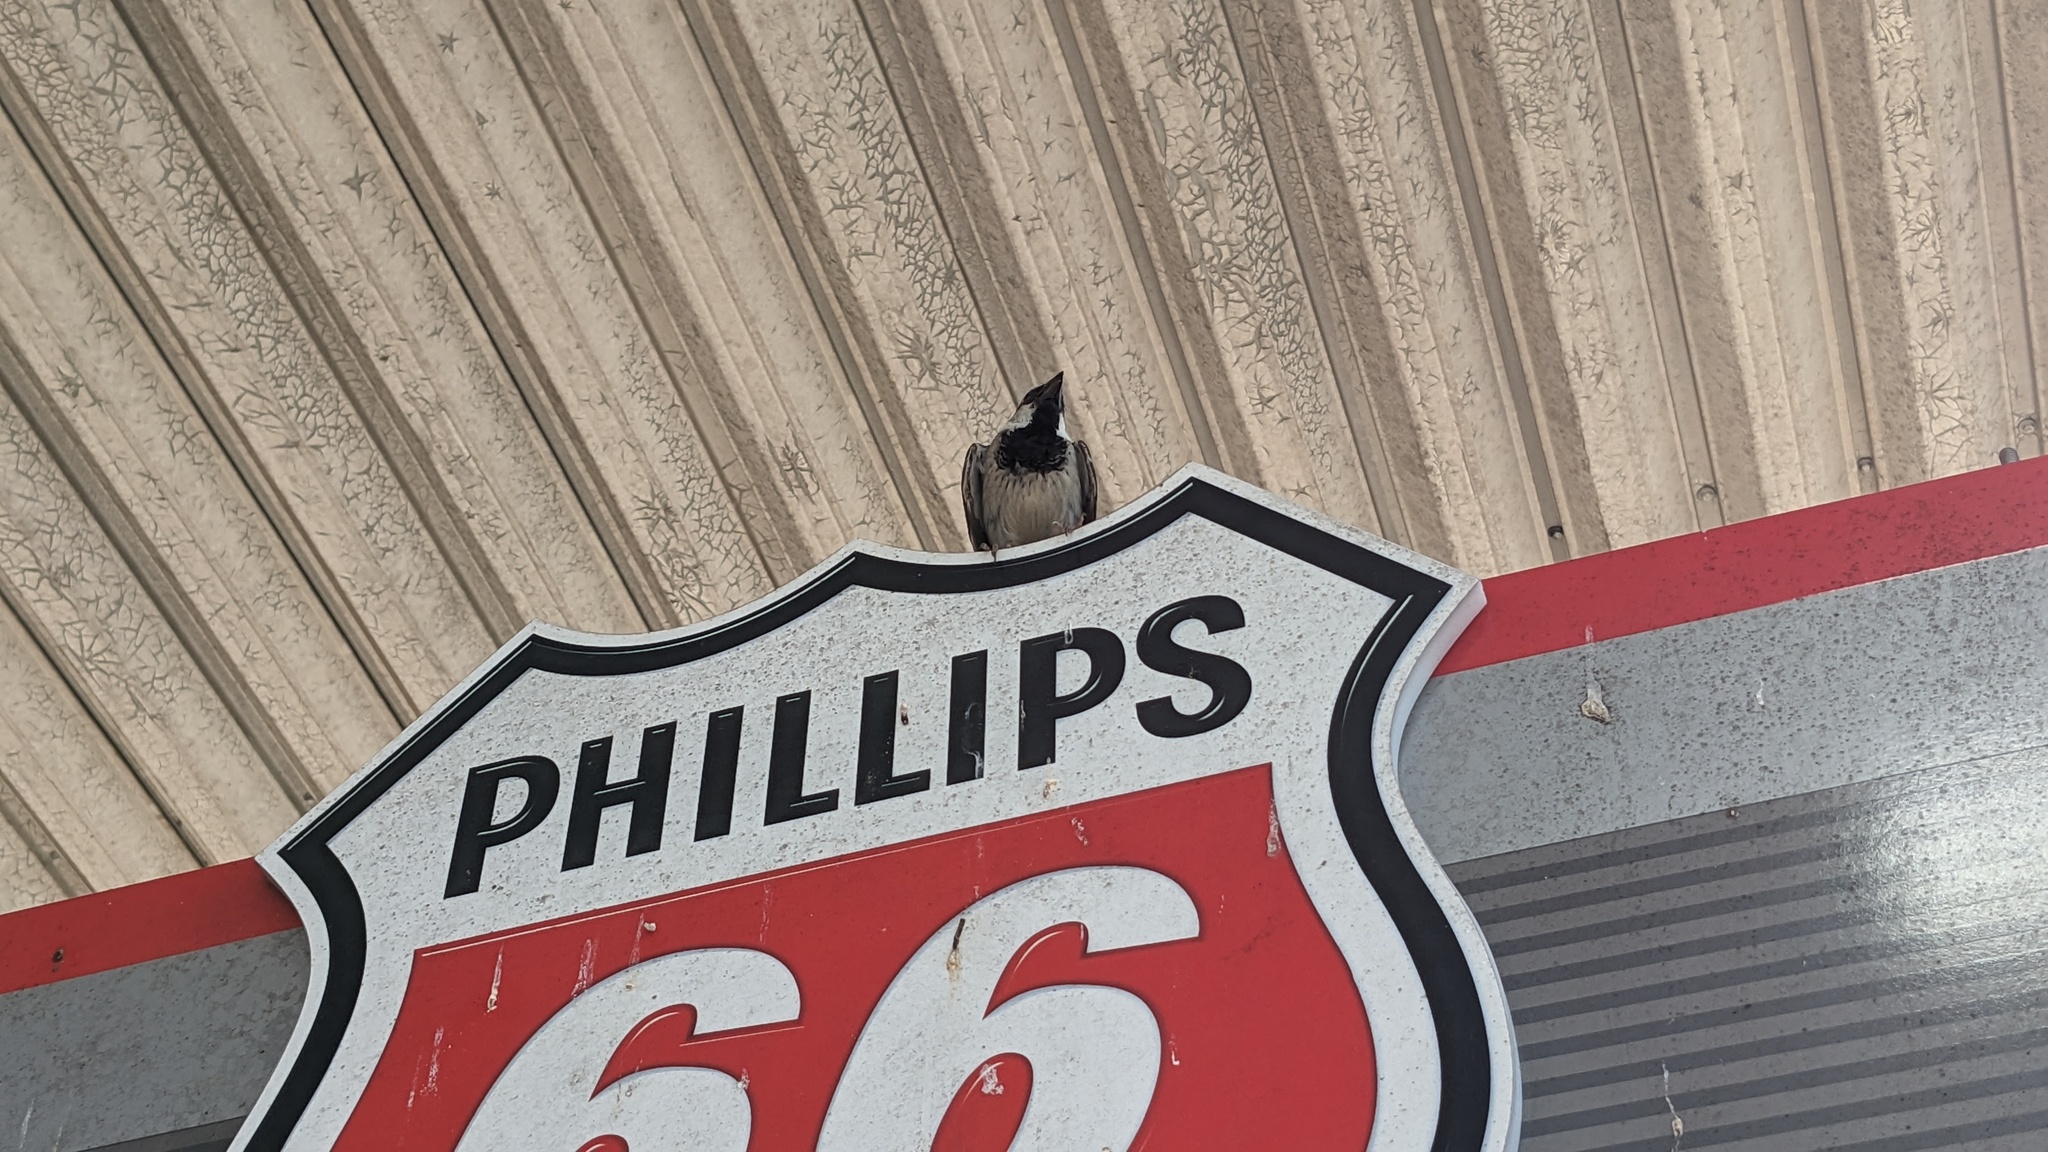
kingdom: Animalia
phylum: Chordata
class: Aves
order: Passeriformes
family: Passeridae
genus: Passer
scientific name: Passer domesticus
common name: House sparrow
